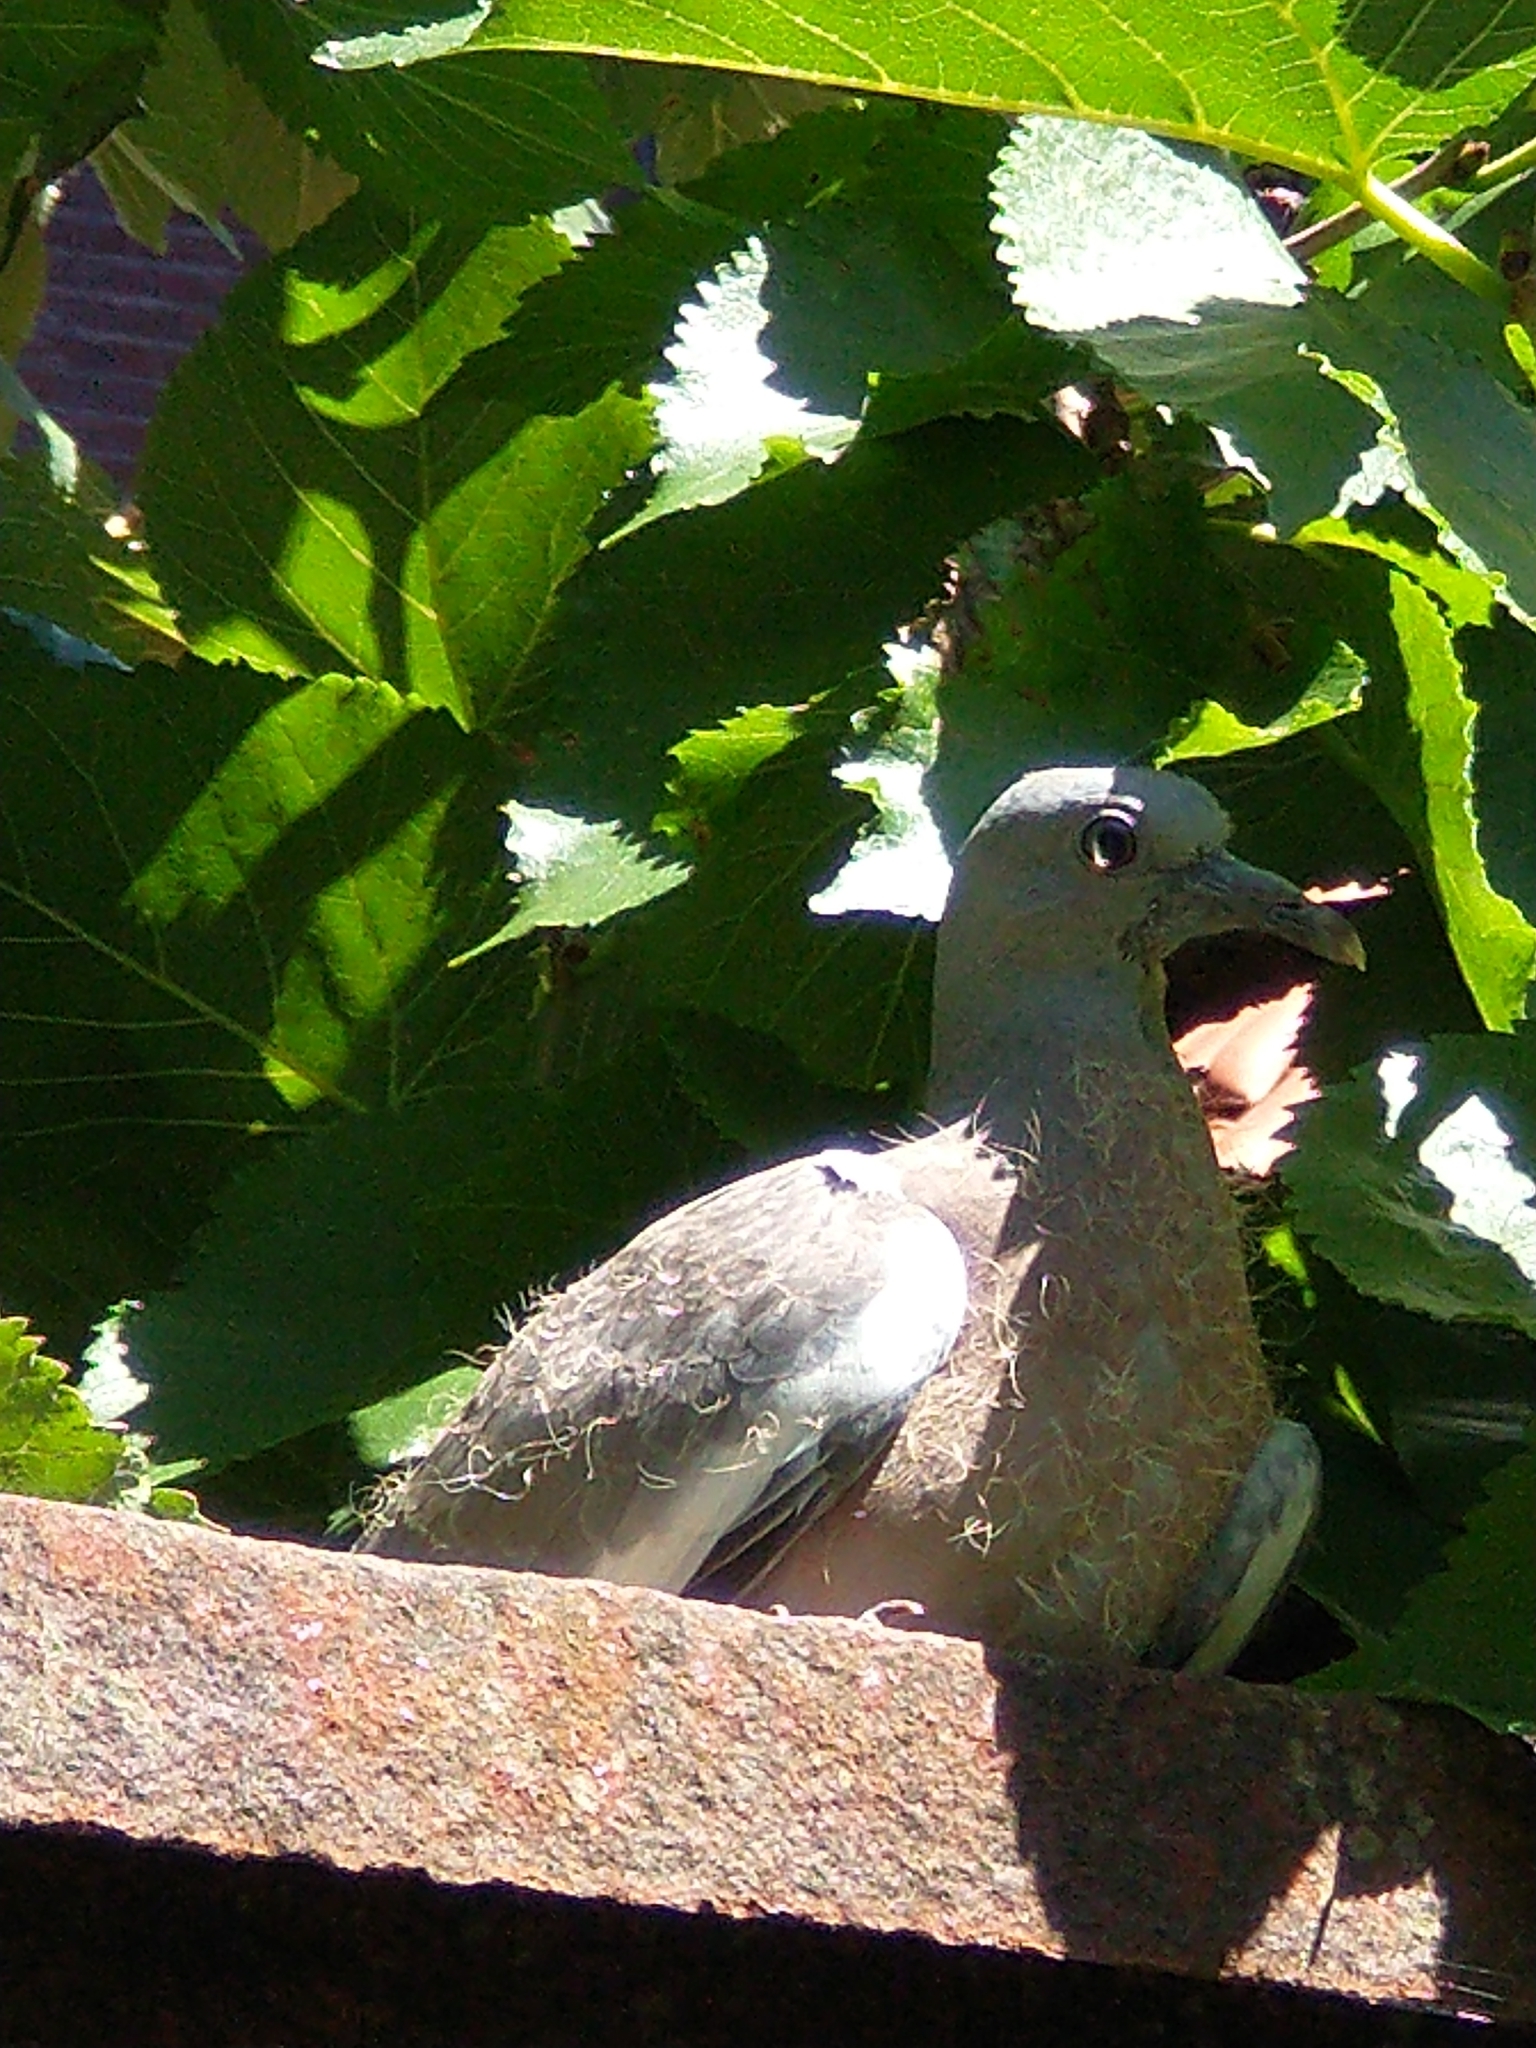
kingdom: Animalia
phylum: Chordata
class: Aves
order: Columbiformes
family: Columbidae
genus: Columba
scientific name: Columba palumbus
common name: Common wood pigeon
